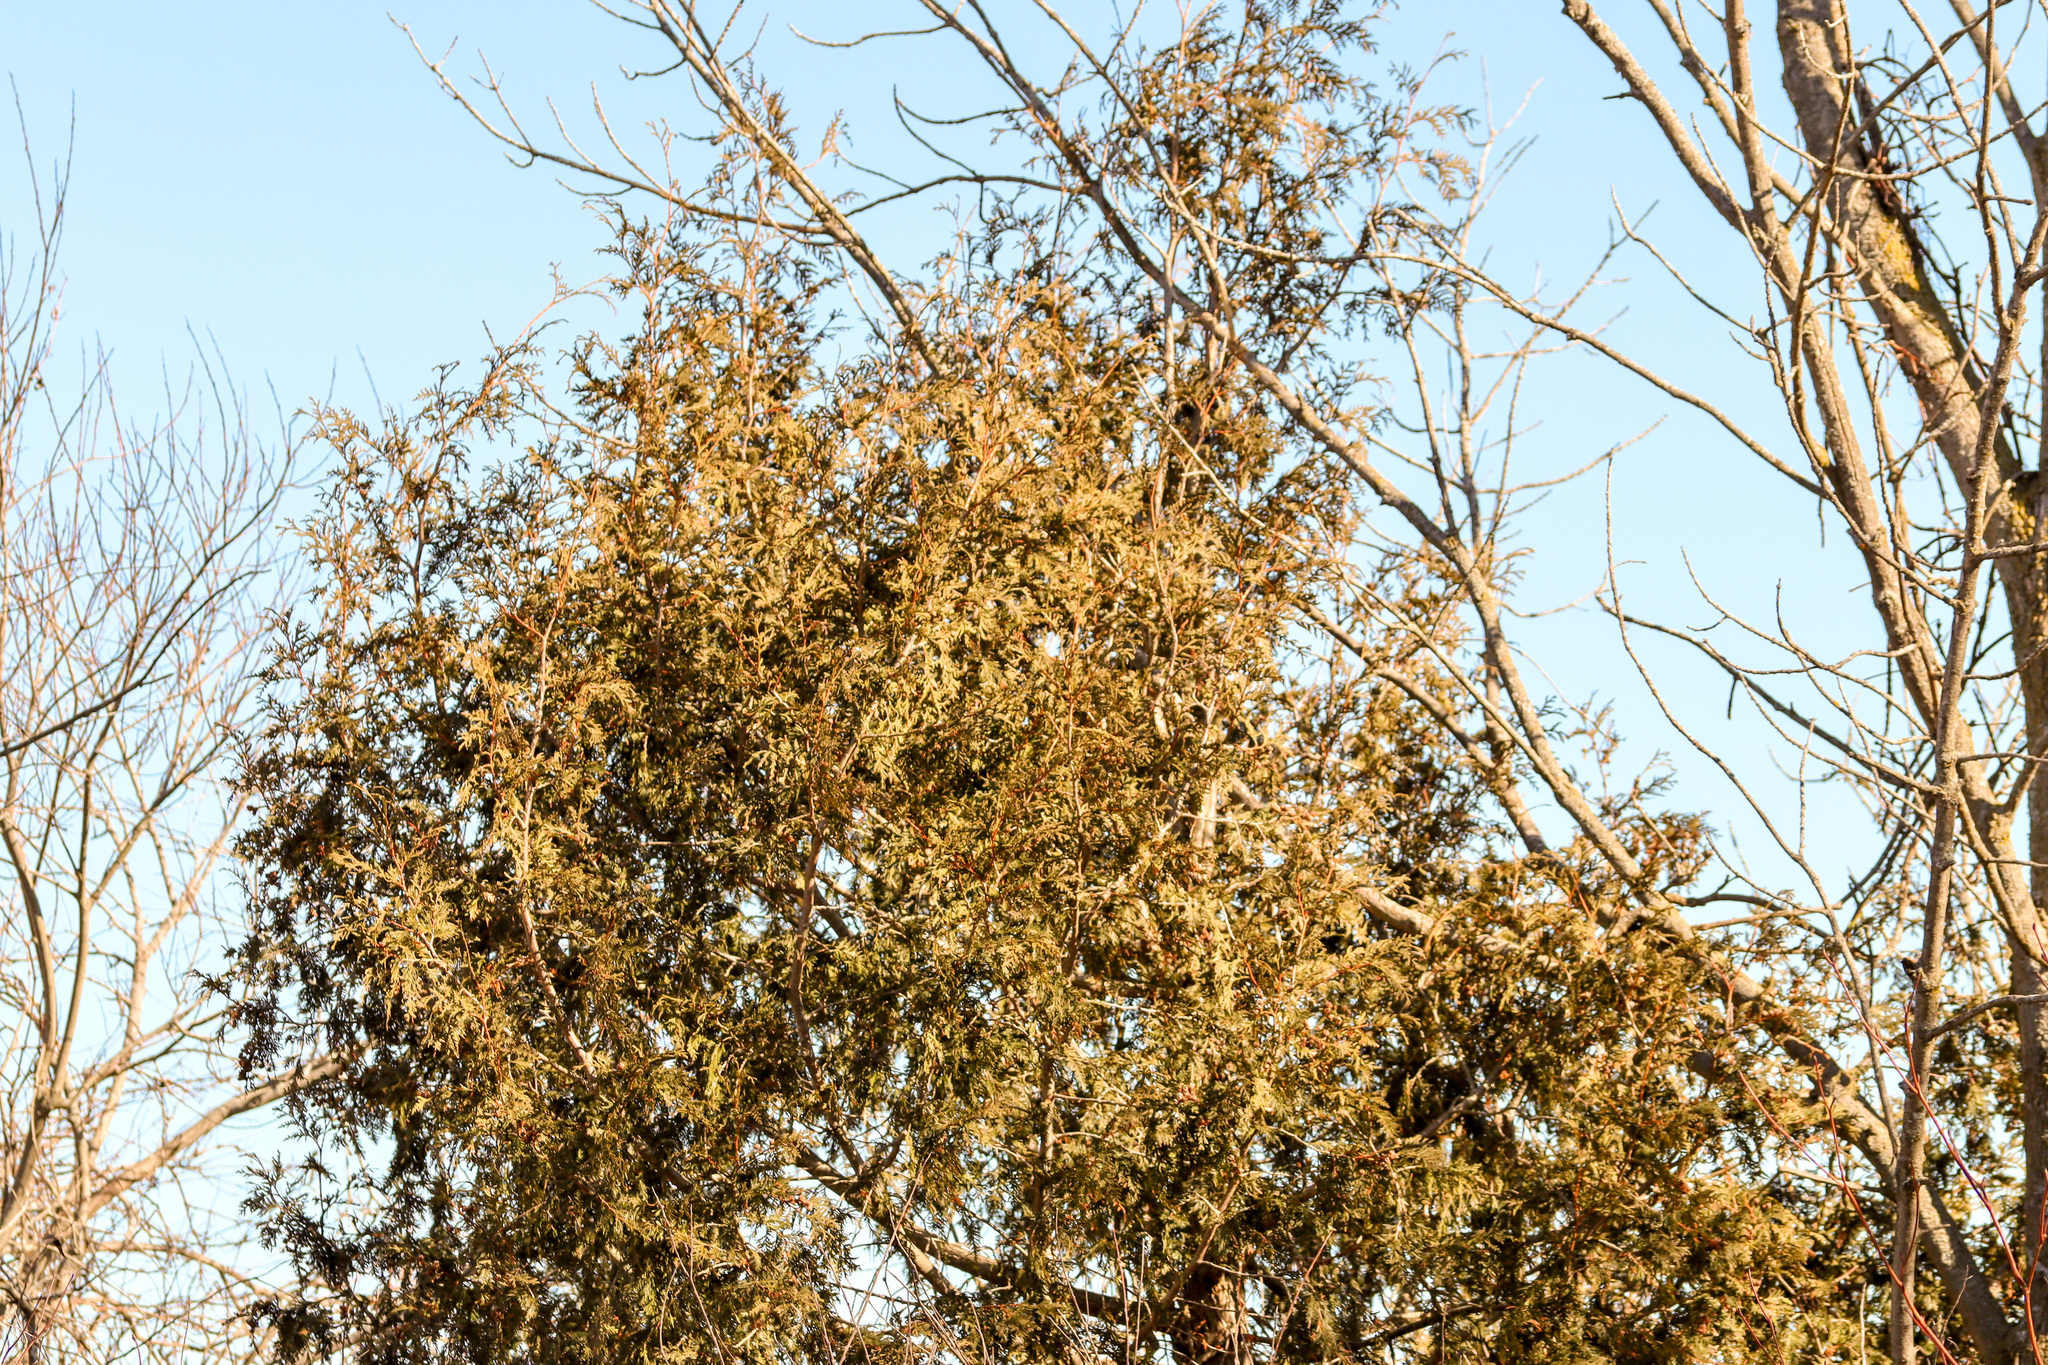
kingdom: Plantae
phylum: Tracheophyta
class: Pinopsida
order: Pinales
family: Cupressaceae
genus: Thuja
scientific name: Thuja occidentalis
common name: Northern white-cedar
